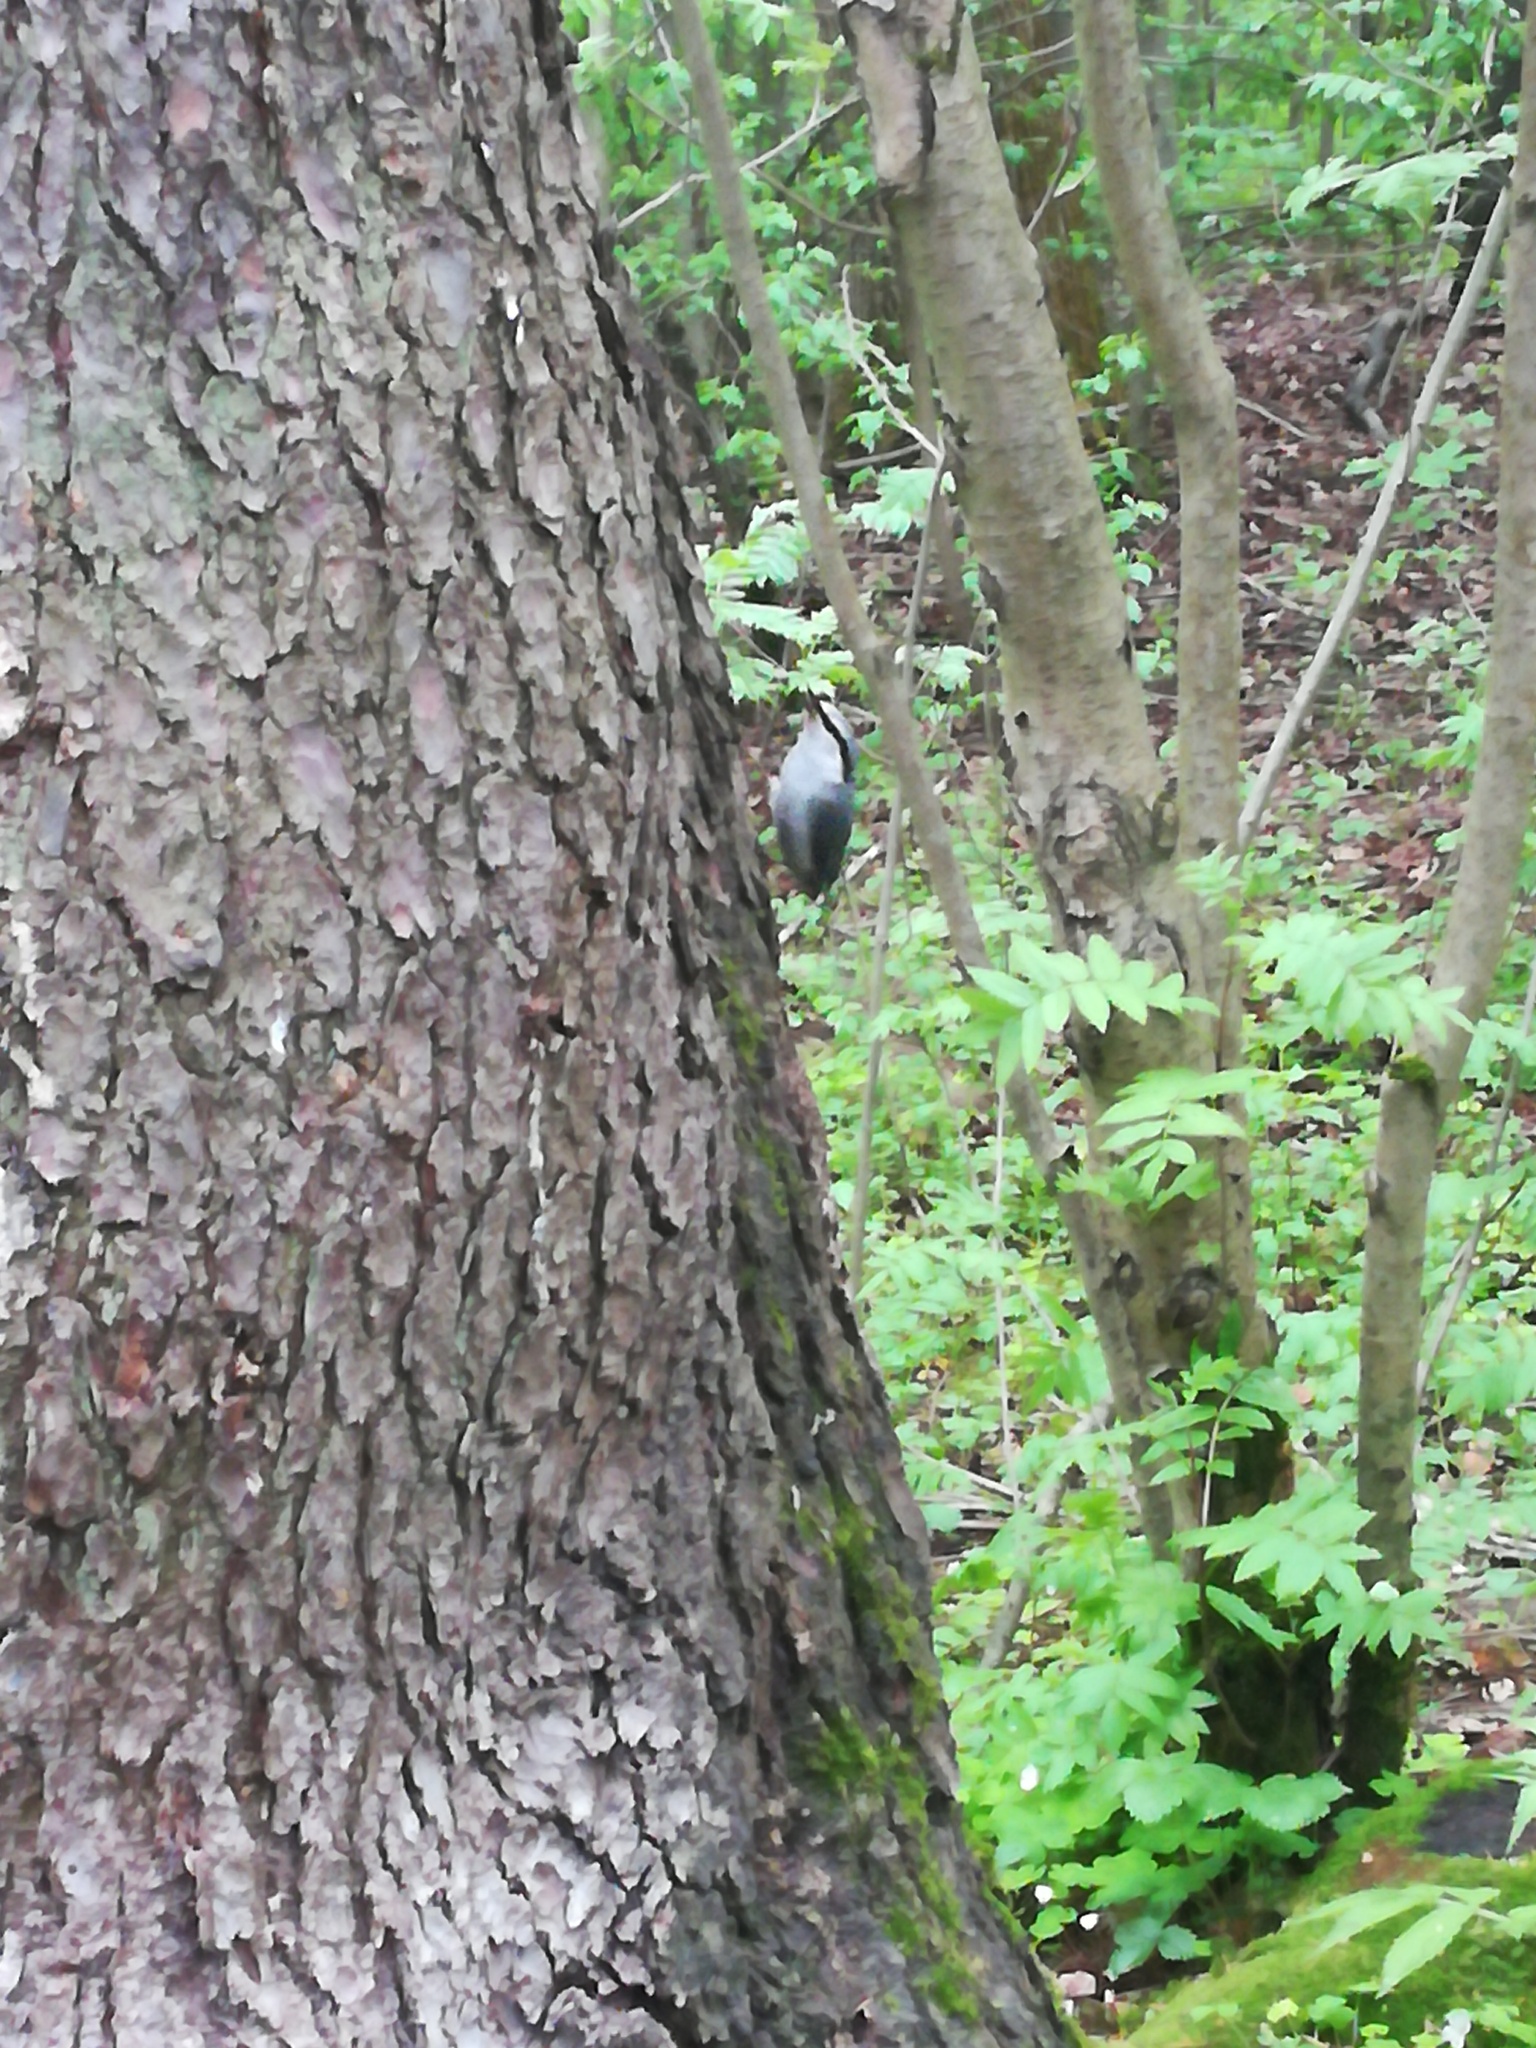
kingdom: Animalia
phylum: Chordata
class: Aves
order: Passeriformes
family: Sittidae
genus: Sitta
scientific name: Sitta europaea
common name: Eurasian nuthatch
